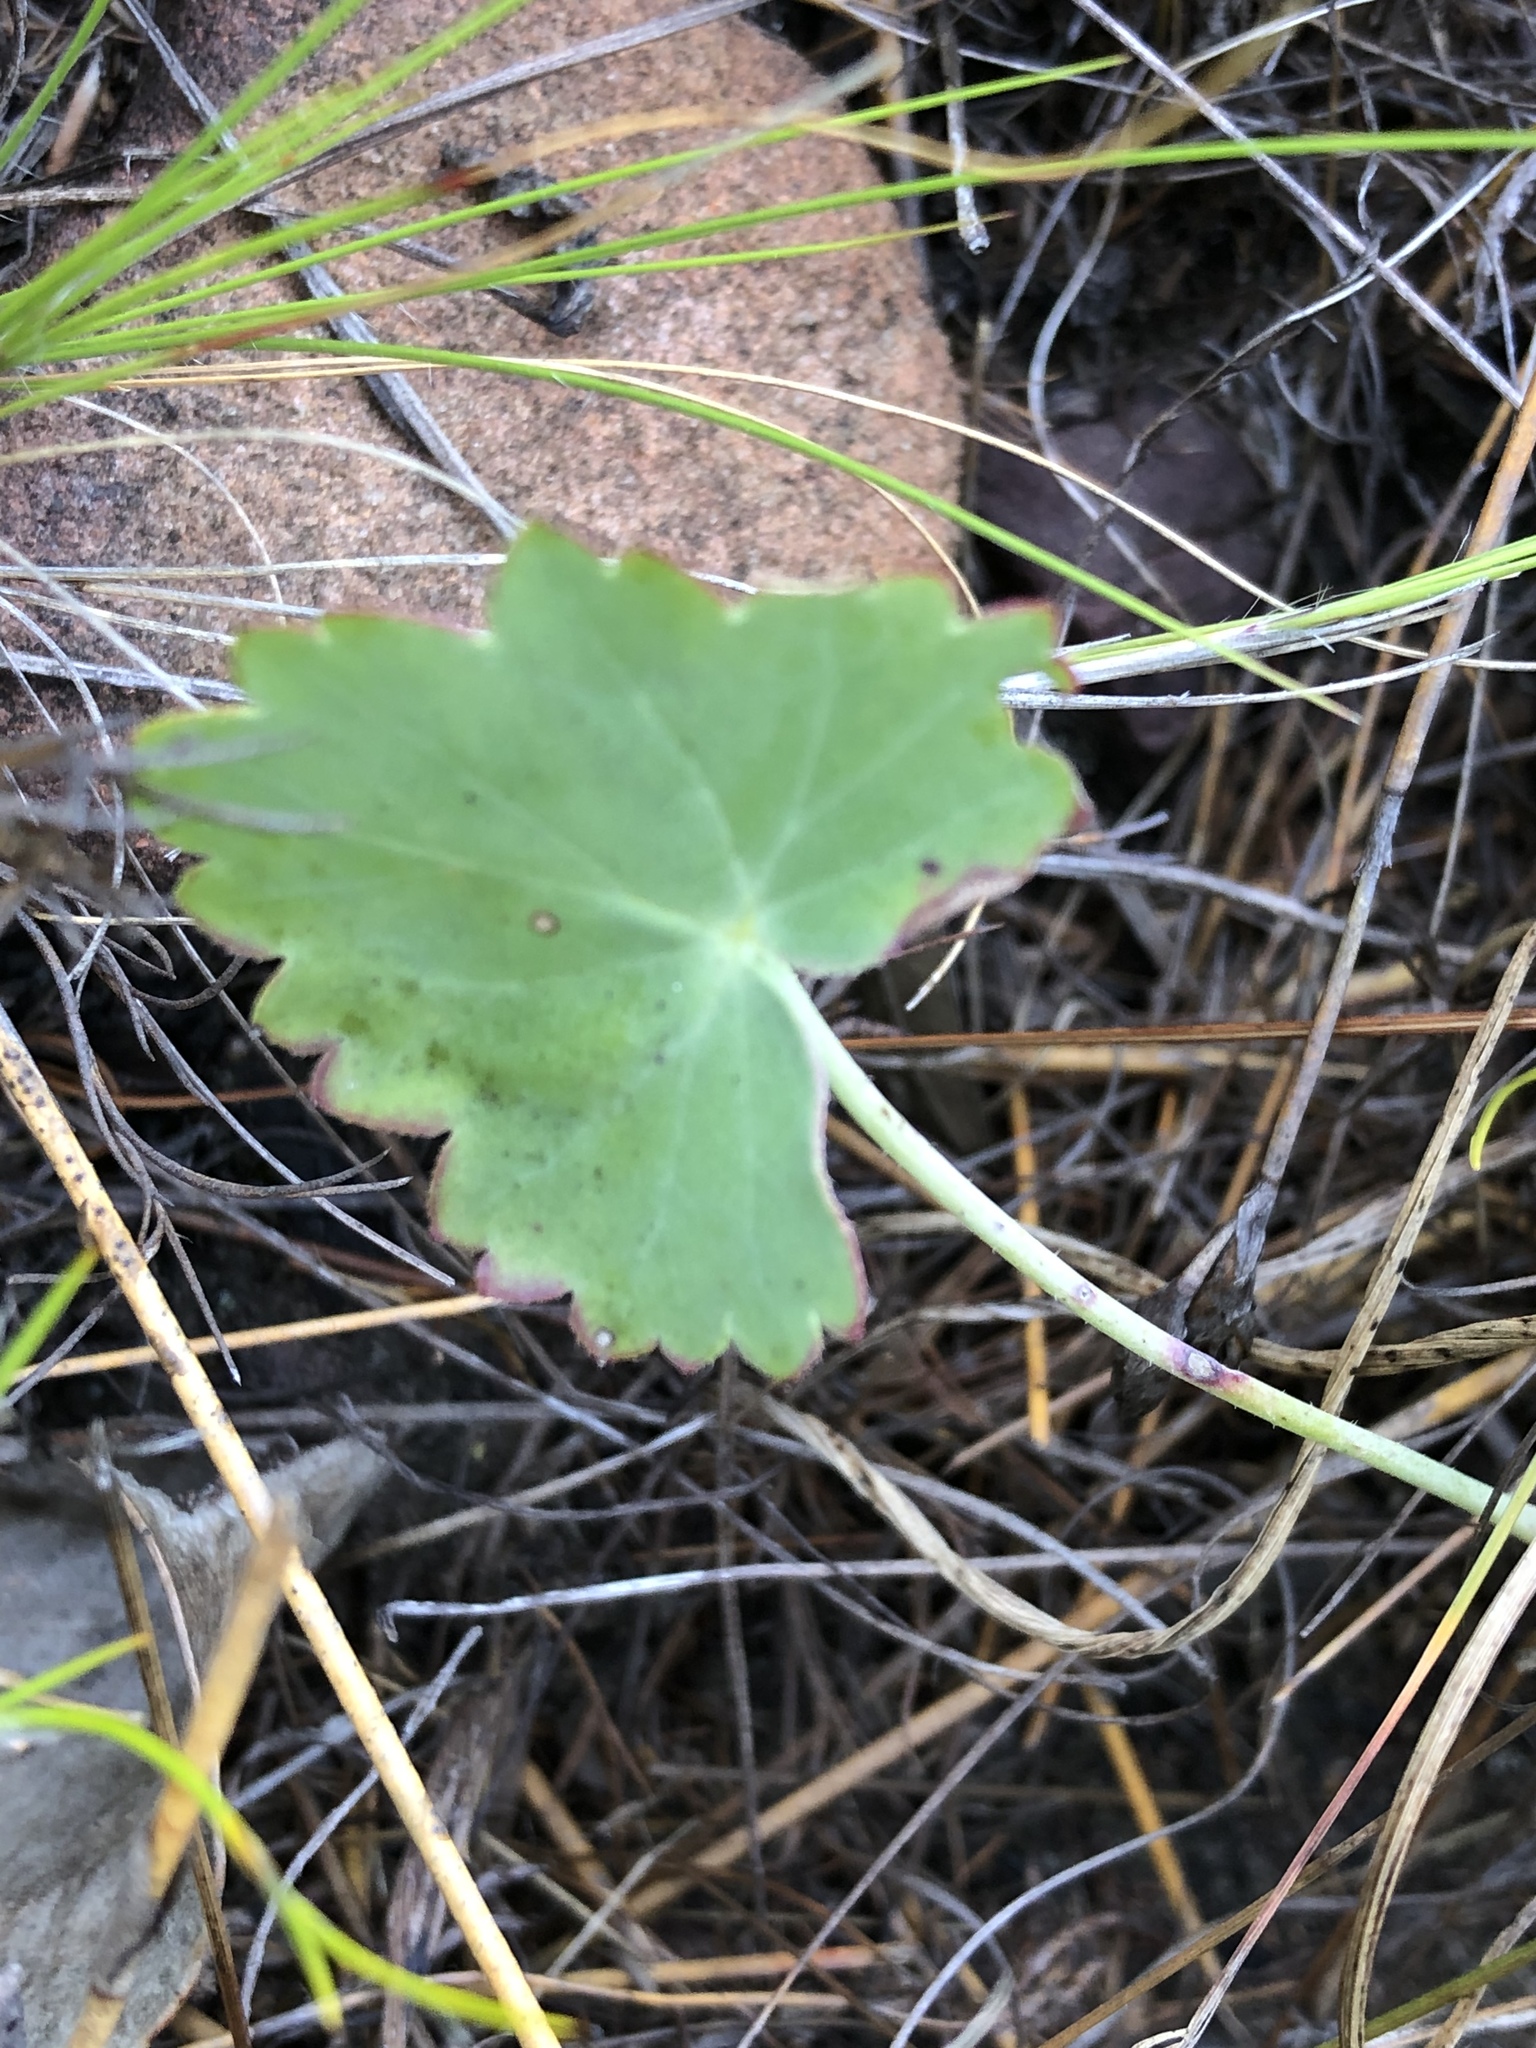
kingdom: Plantae
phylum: Tracheophyta
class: Magnoliopsida
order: Geraniales
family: Geraniaceae
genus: Pelargonium
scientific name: Pelargonium patulum
